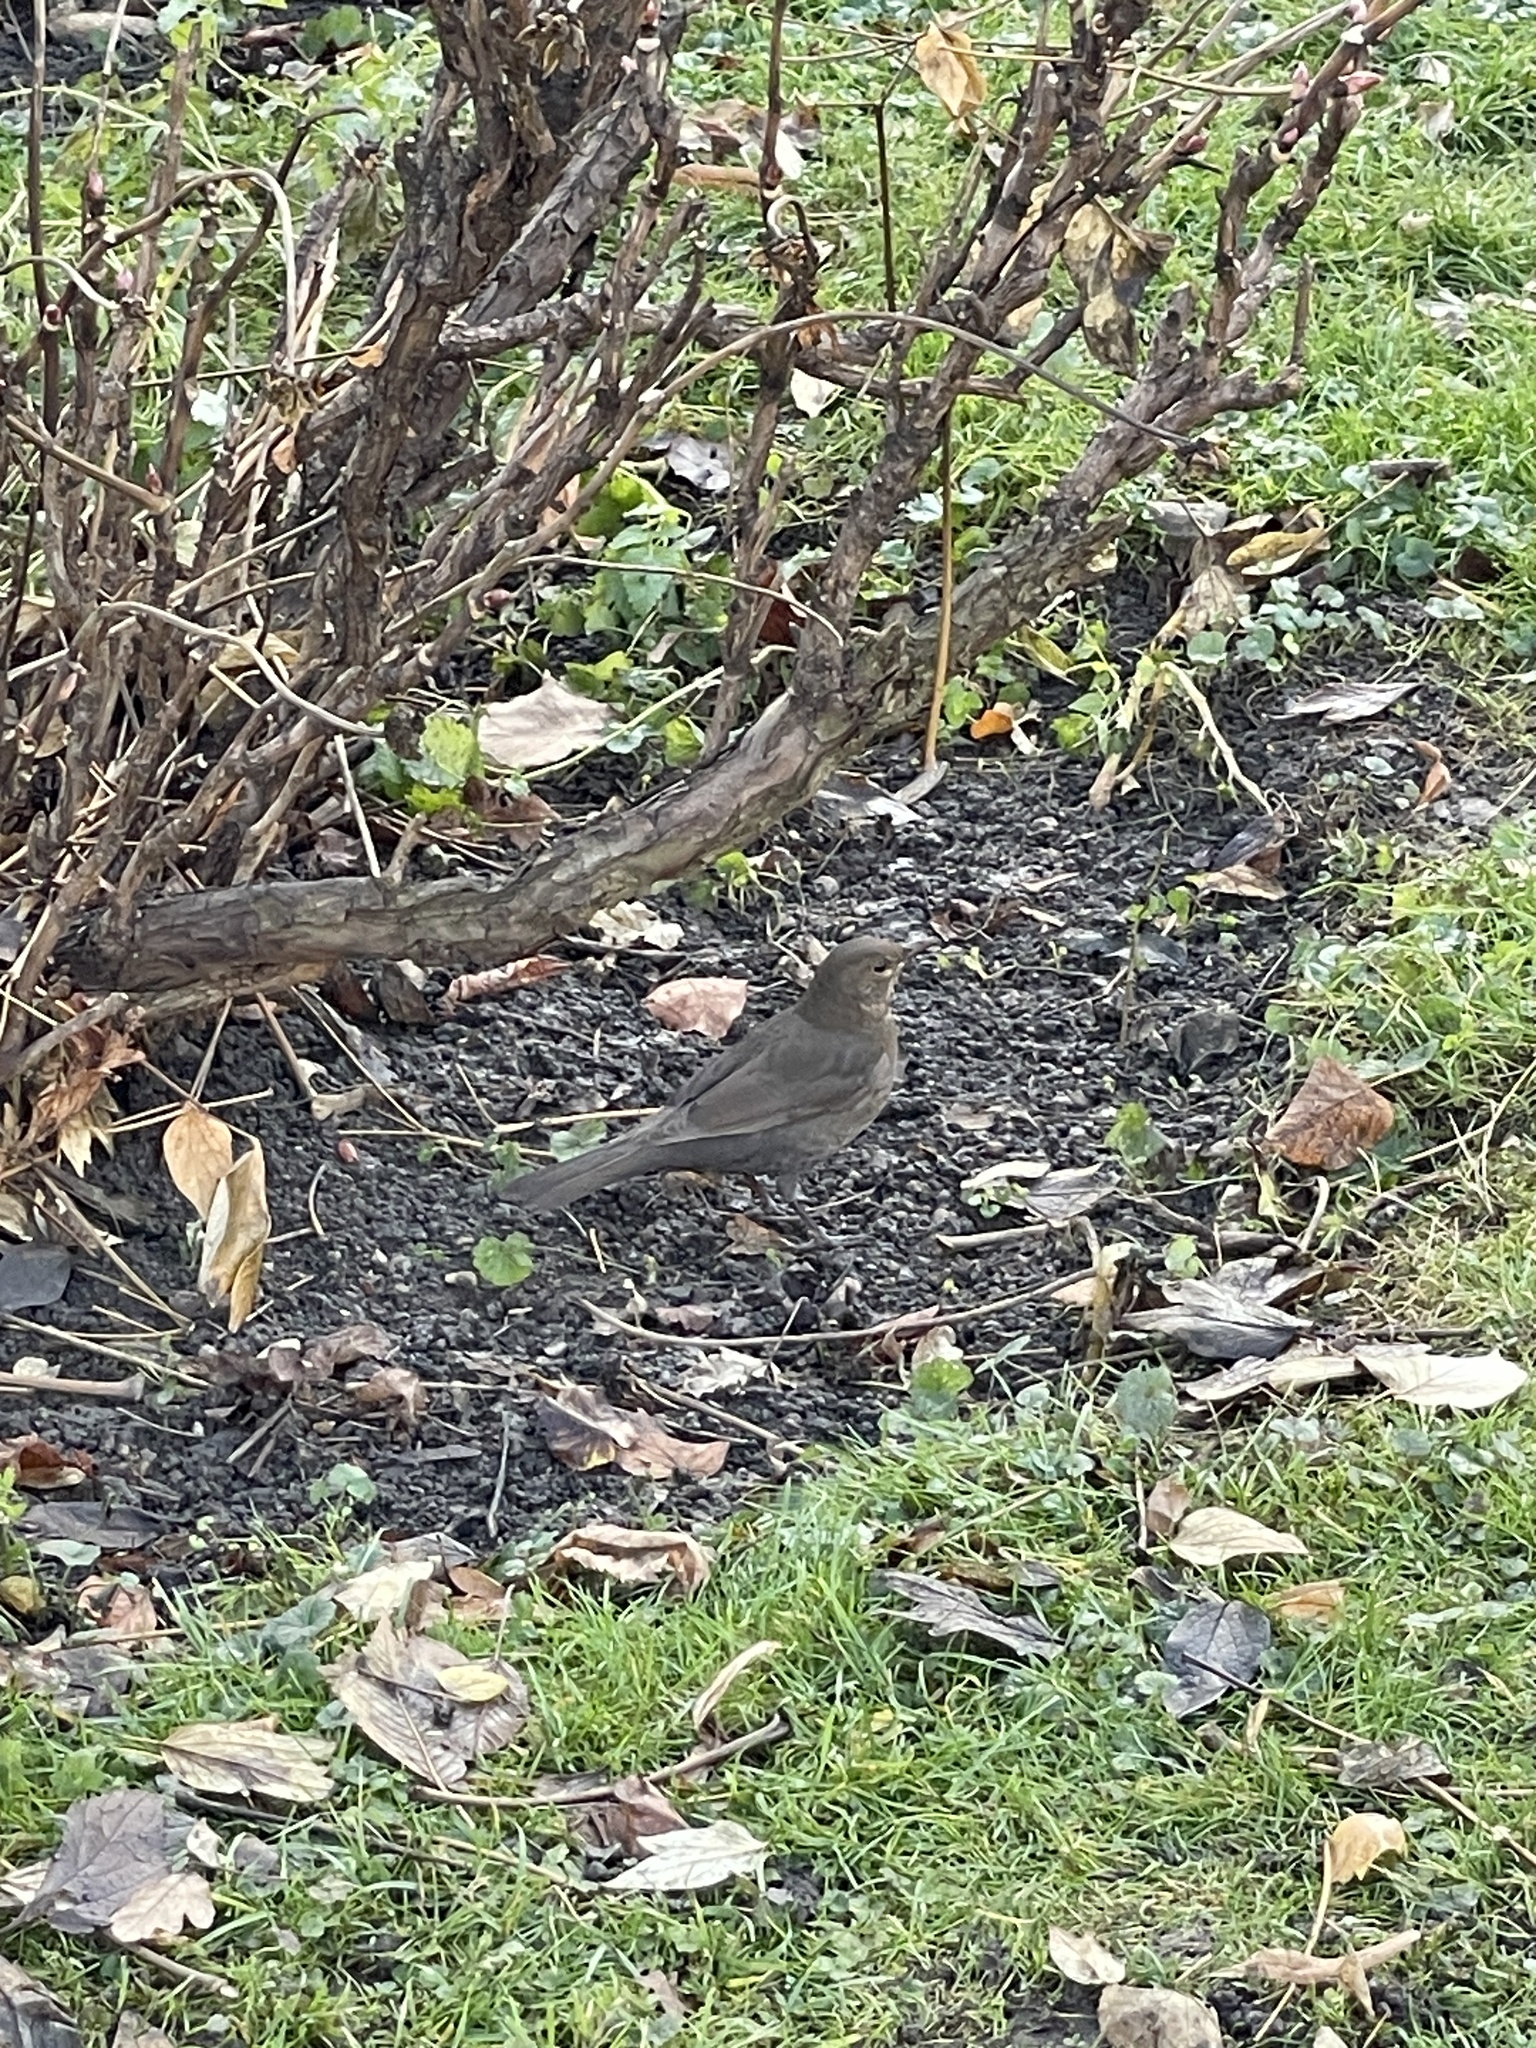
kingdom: Animalia
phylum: Chordata
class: Aves
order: Passeriformes
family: Turdidae
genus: Turdus
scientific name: Turdus merula
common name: Common blackbird
